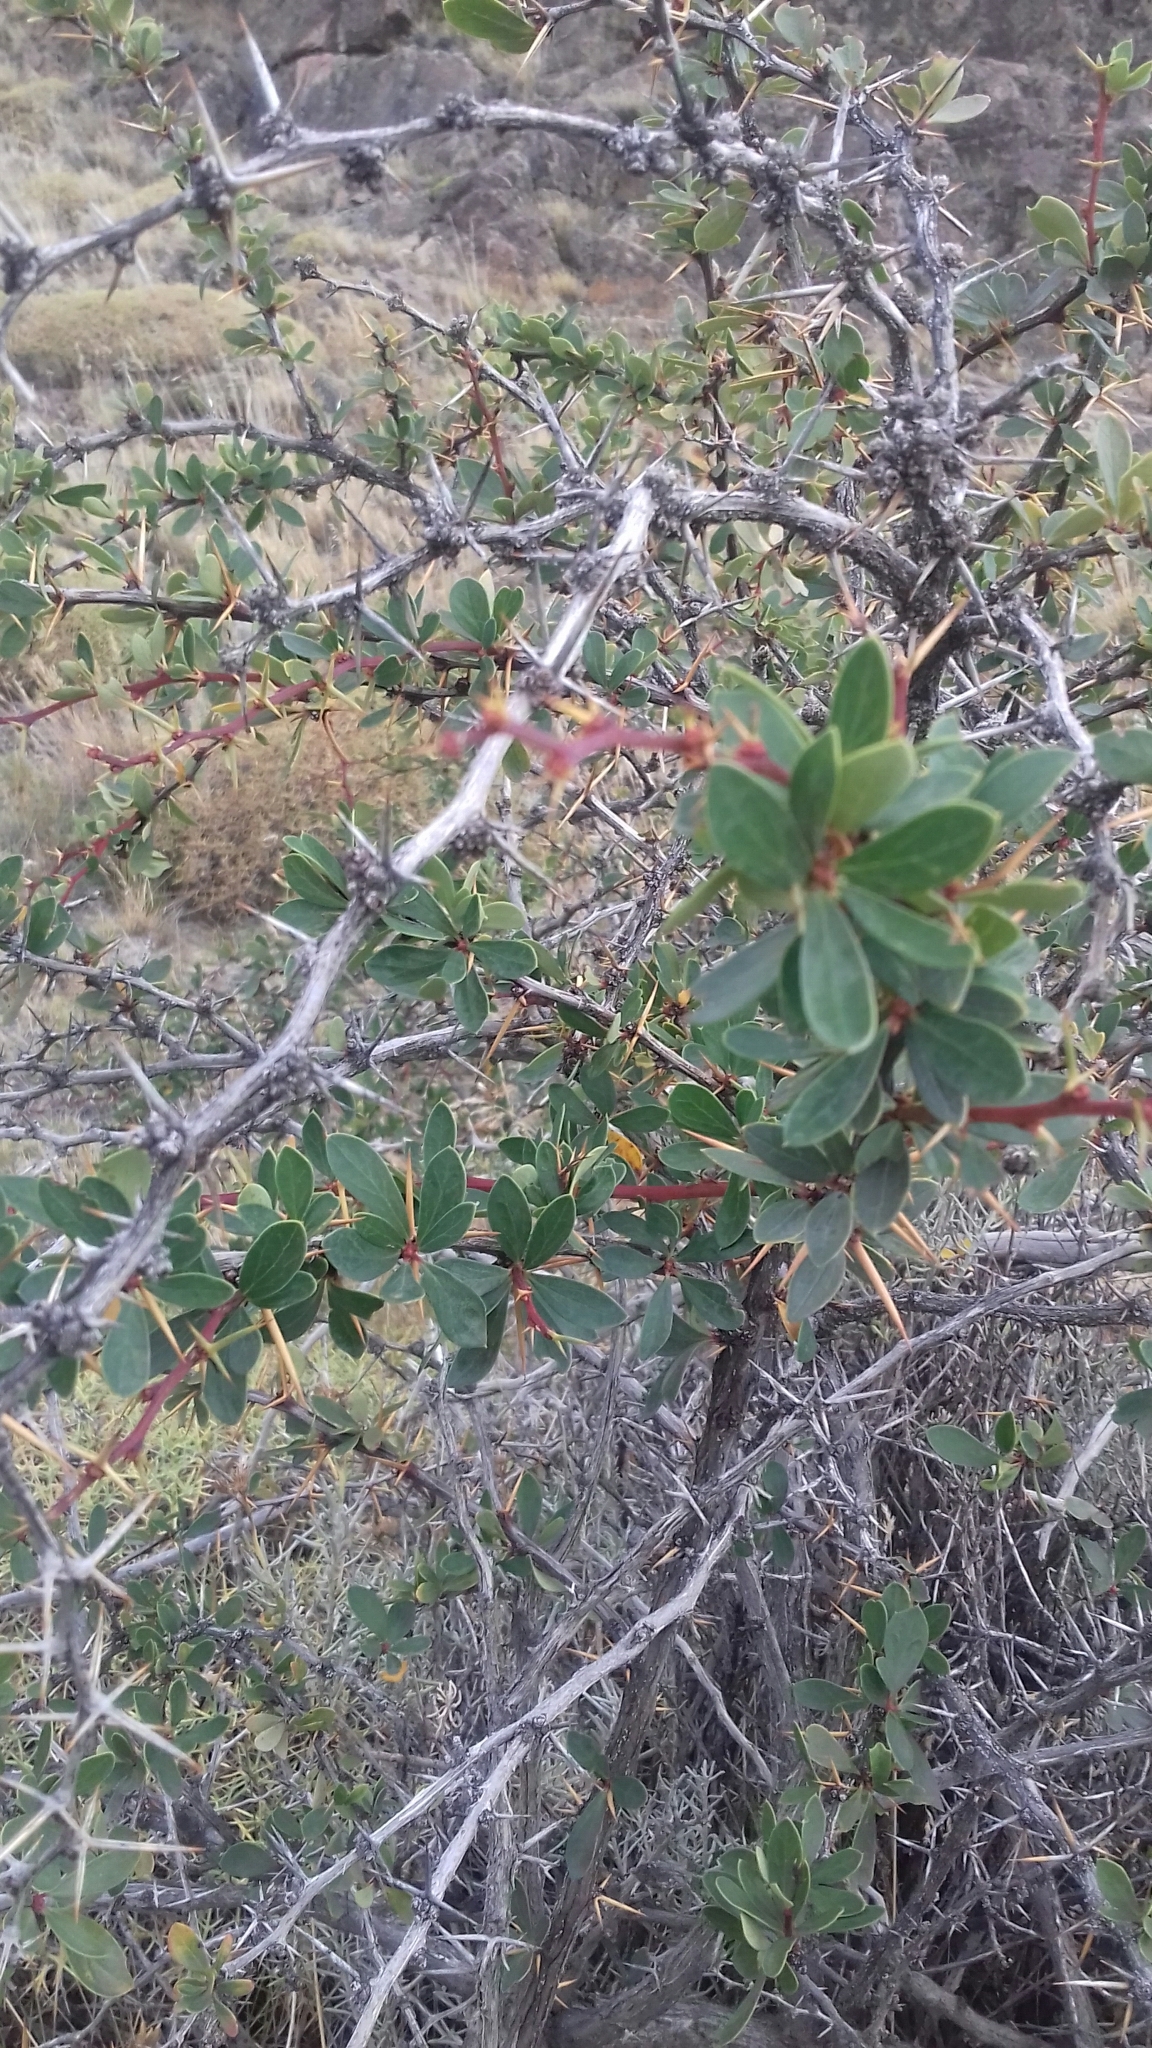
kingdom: Plantae
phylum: Tracheophyta
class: Magnoliopsida
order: Ranunculales
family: Berberidaceae
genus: Berberis
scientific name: Berberis microphylla
